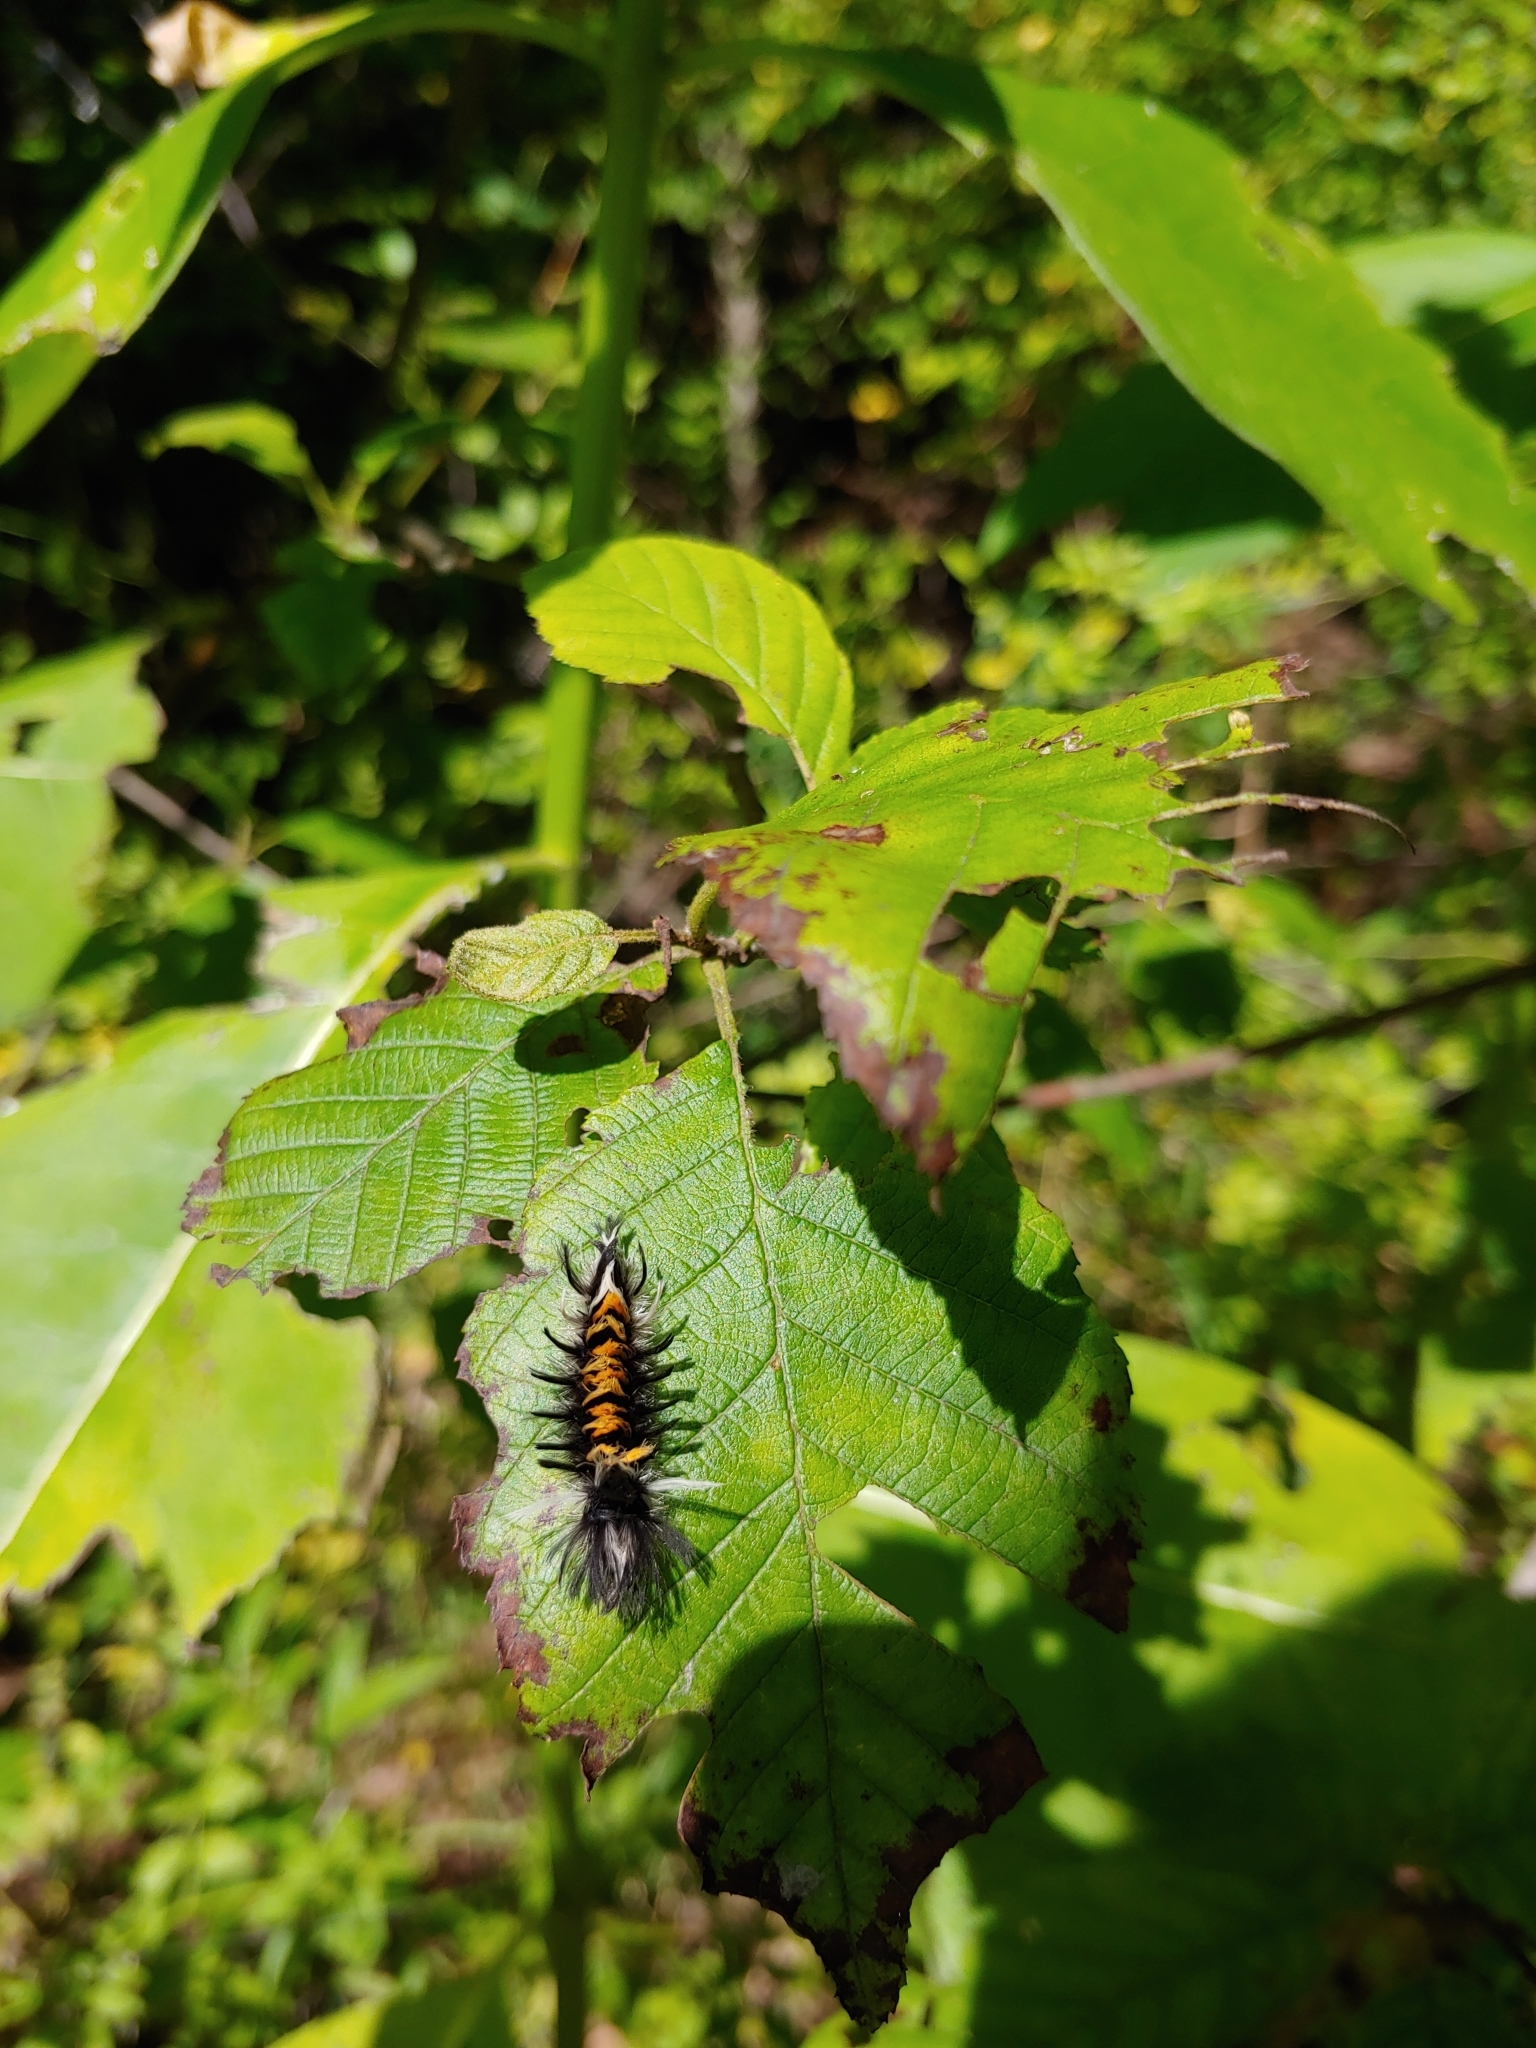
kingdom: Animalia
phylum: Arthropoda
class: Insecta
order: Lepidoptera
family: Erebidae
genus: Euchaetes
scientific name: Euchaetes egle
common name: Milkweed tussock moth
